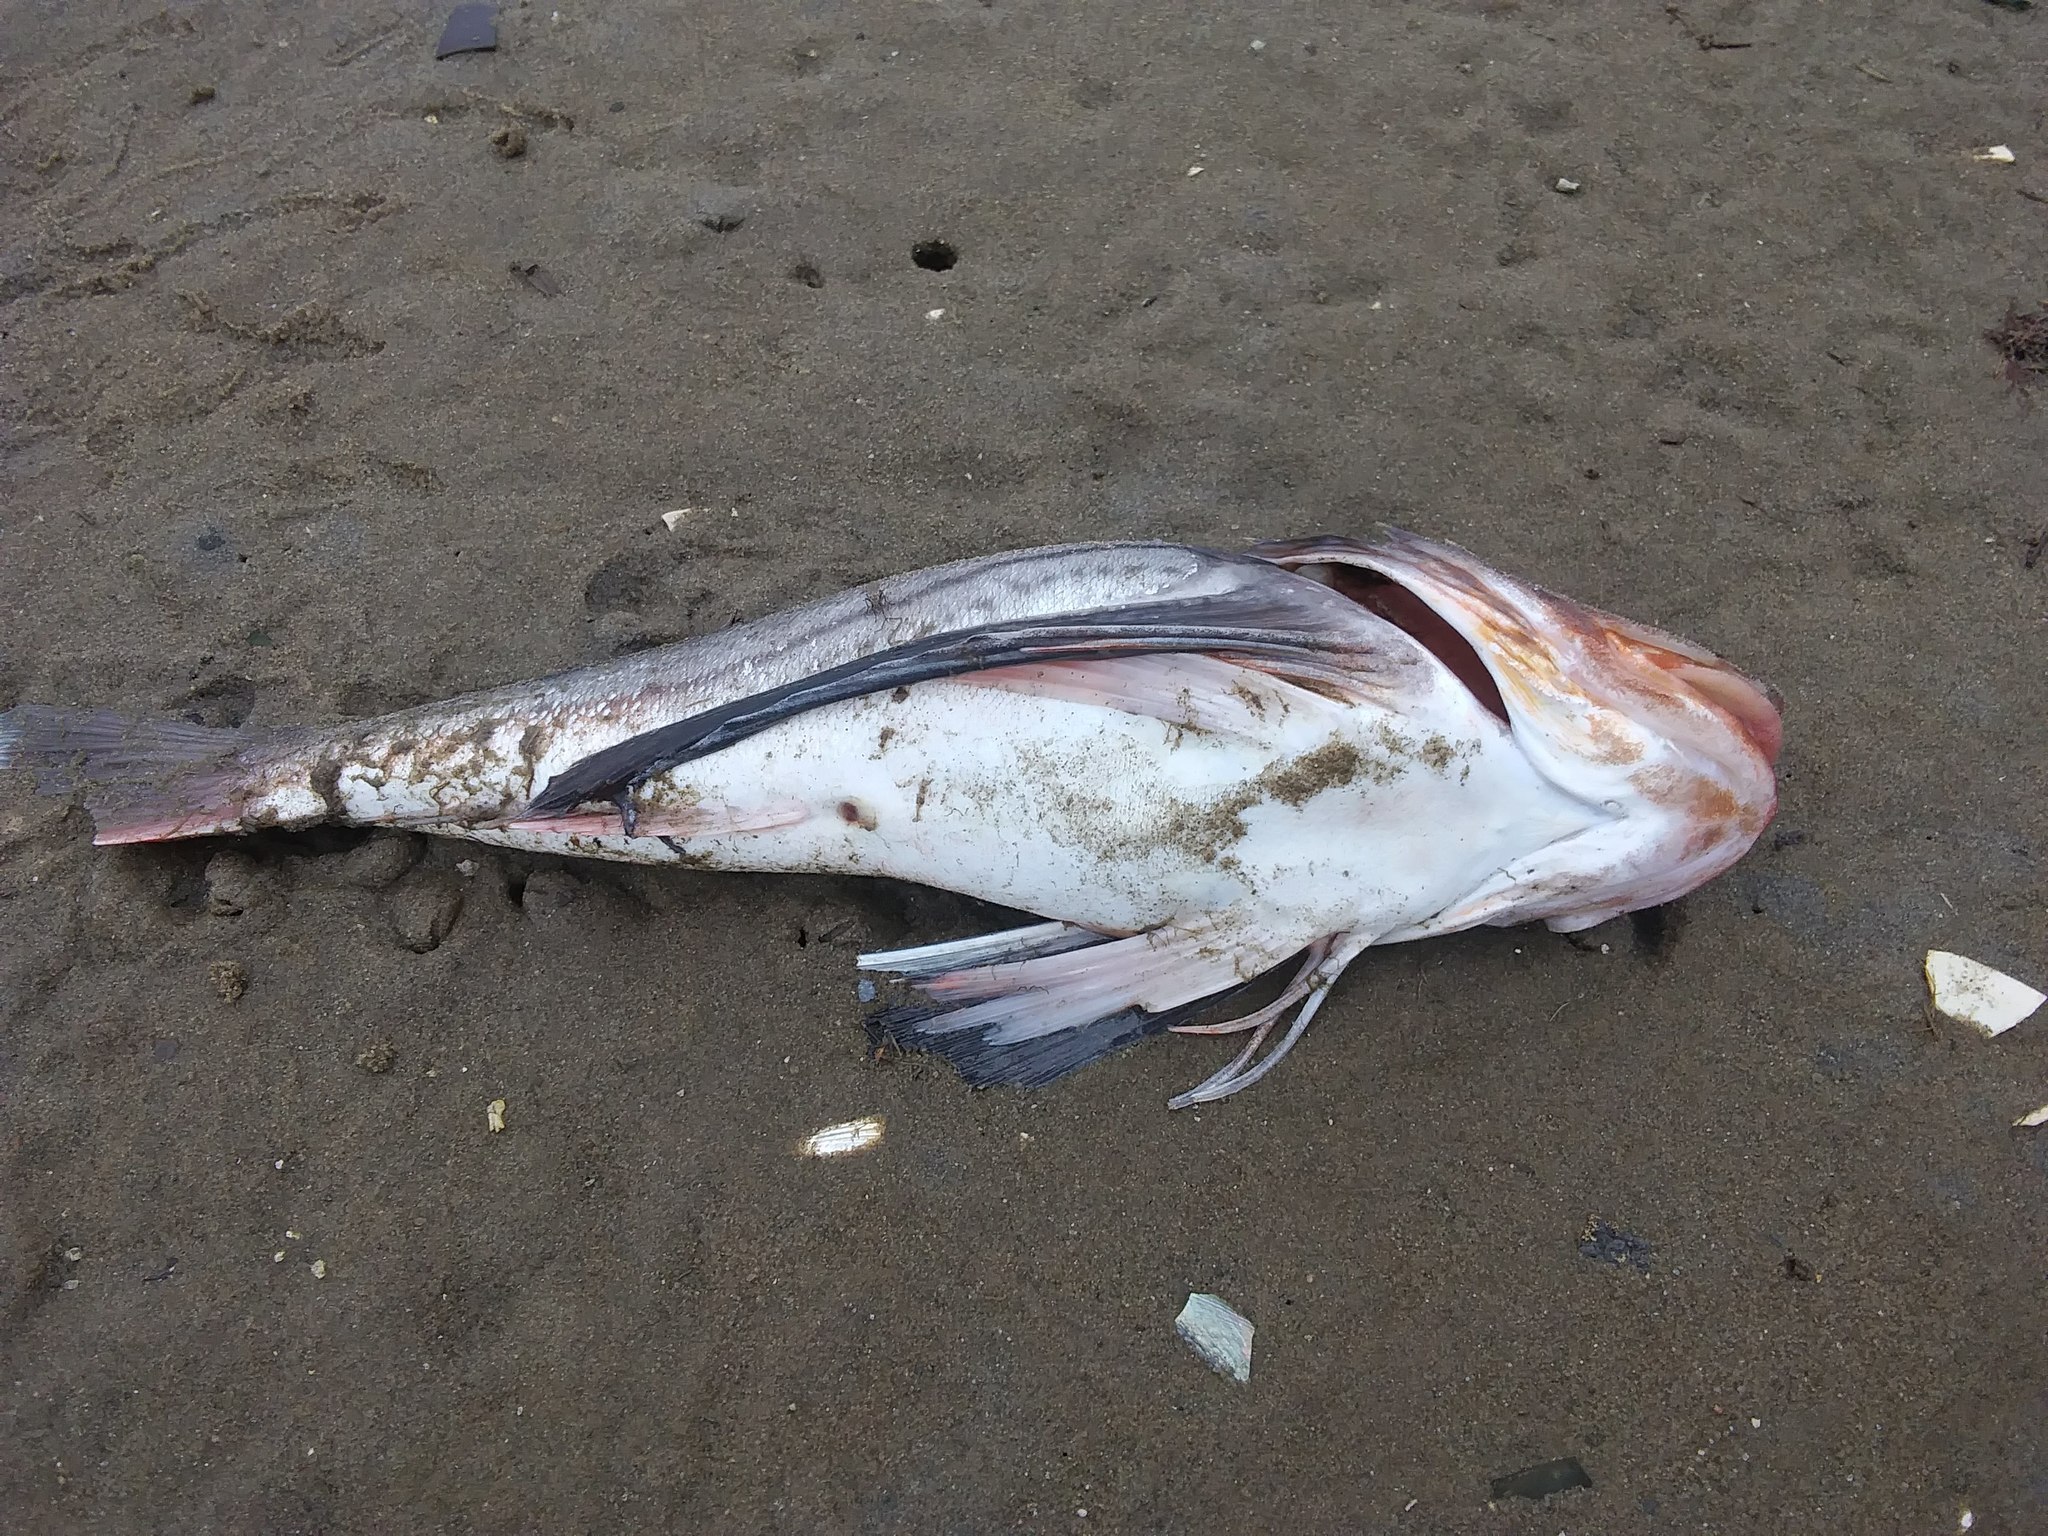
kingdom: Animalia
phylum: Chordata
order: Scorpaeniformes
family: Triglidae
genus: Prionotus
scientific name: Prionotus evolans
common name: Striped searobin
